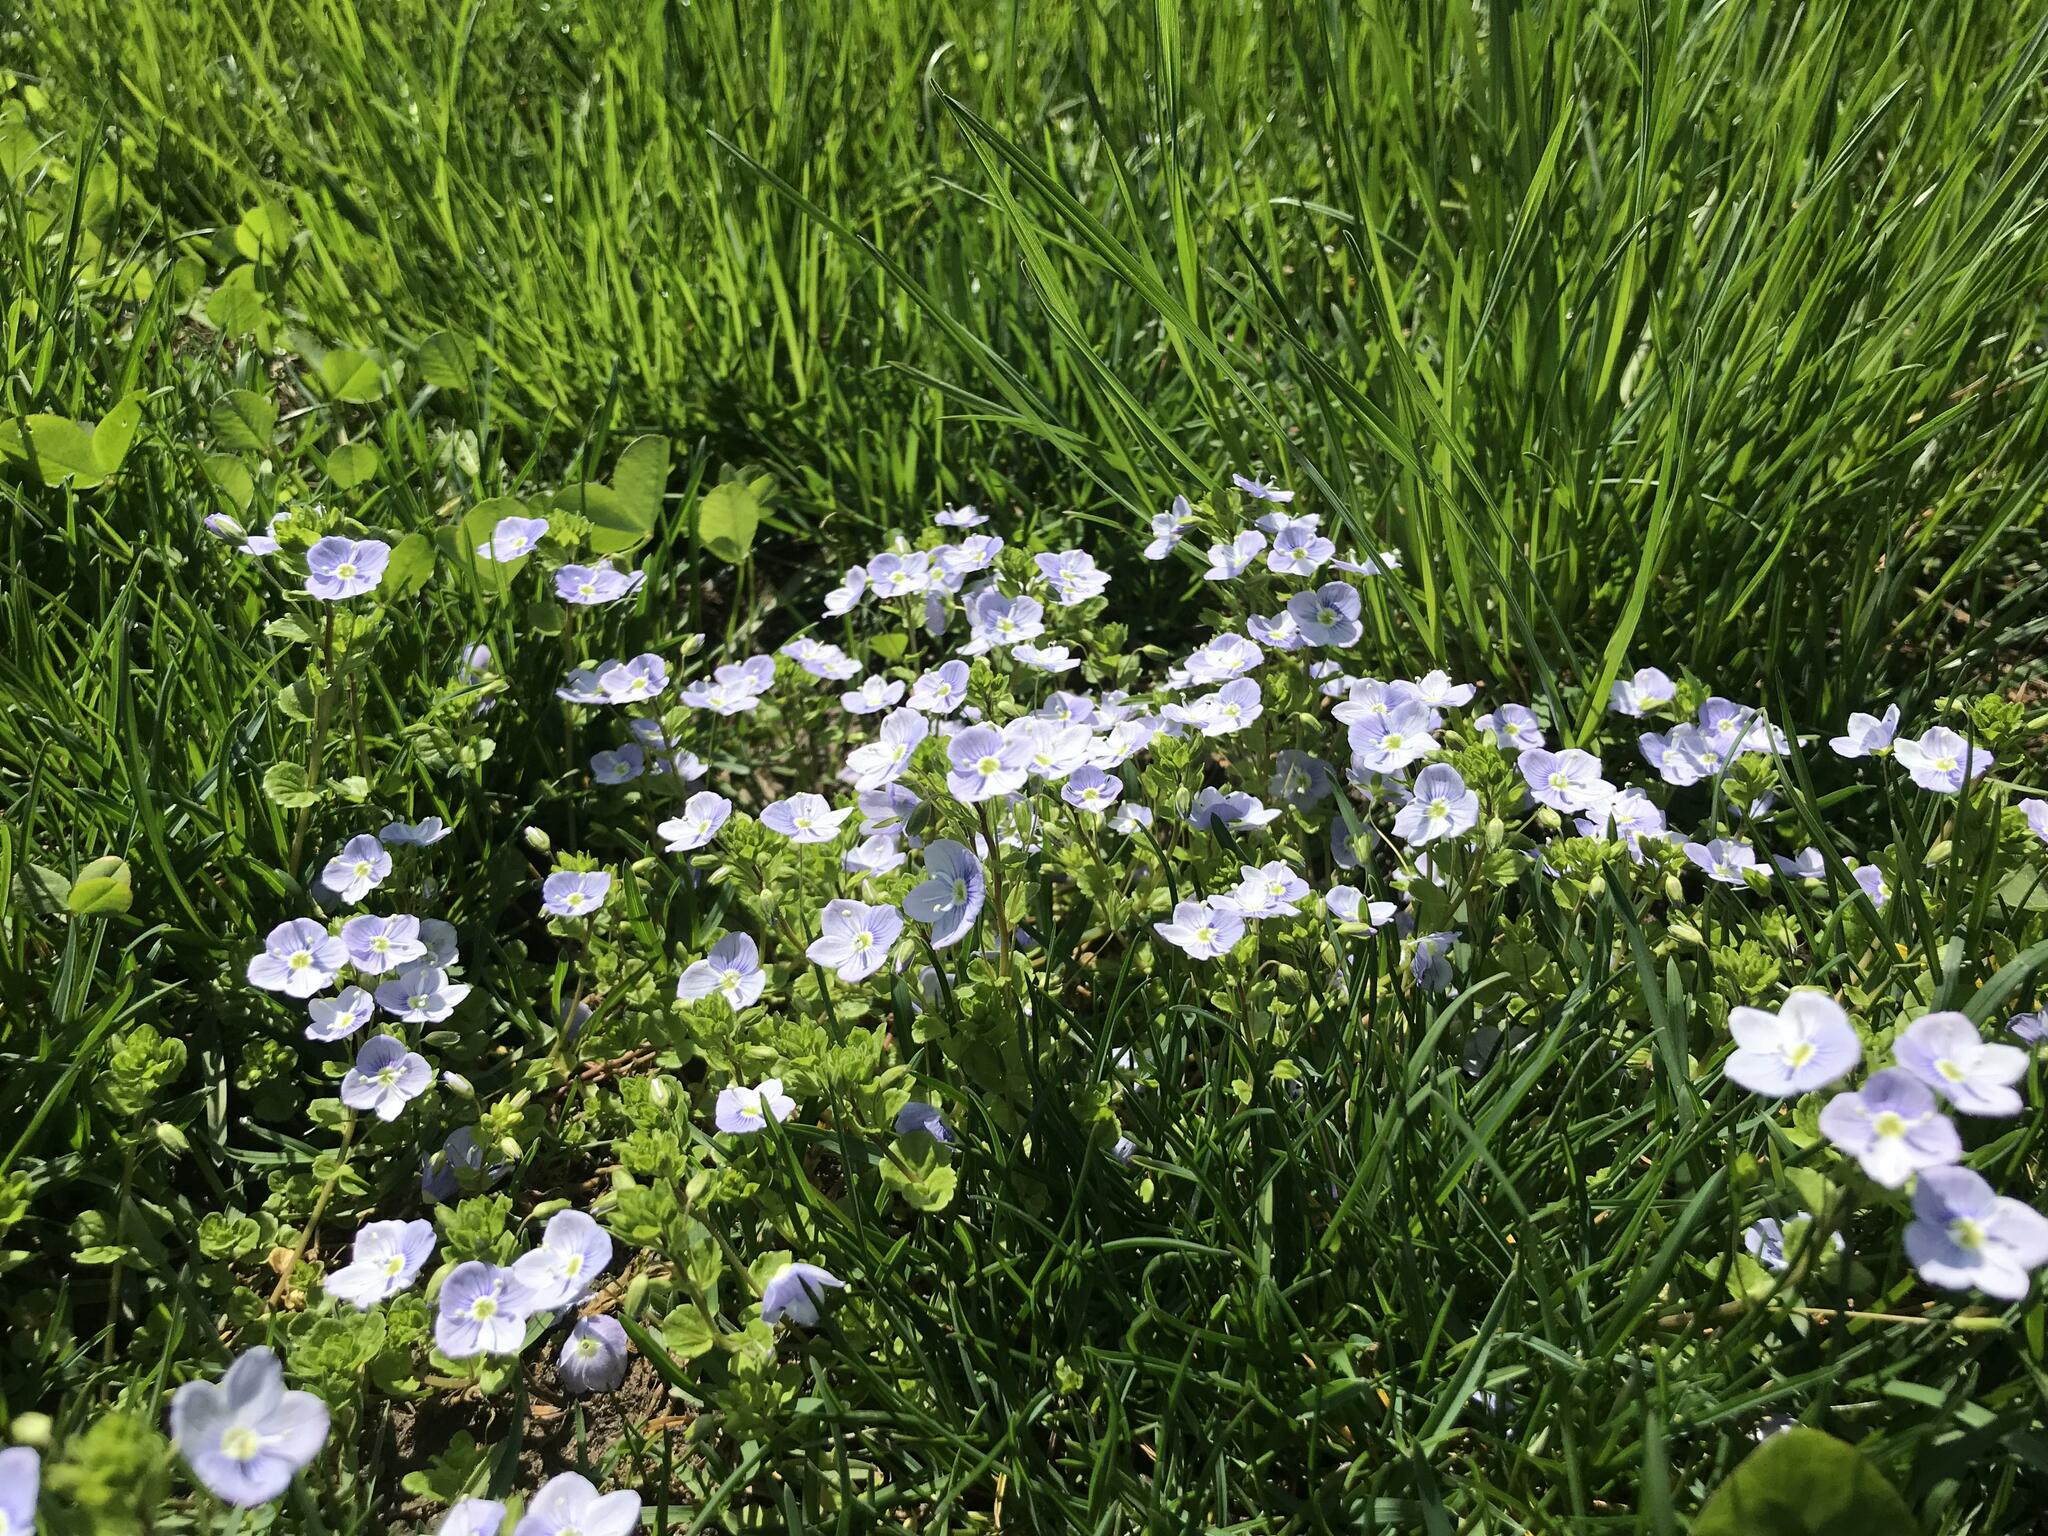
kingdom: Plantae
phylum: Tracheophyta
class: Magnoliopsida
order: Lamiales
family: Plantaginaceae
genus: Veronica
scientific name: Veronica filiformis
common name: Slender speedwell
